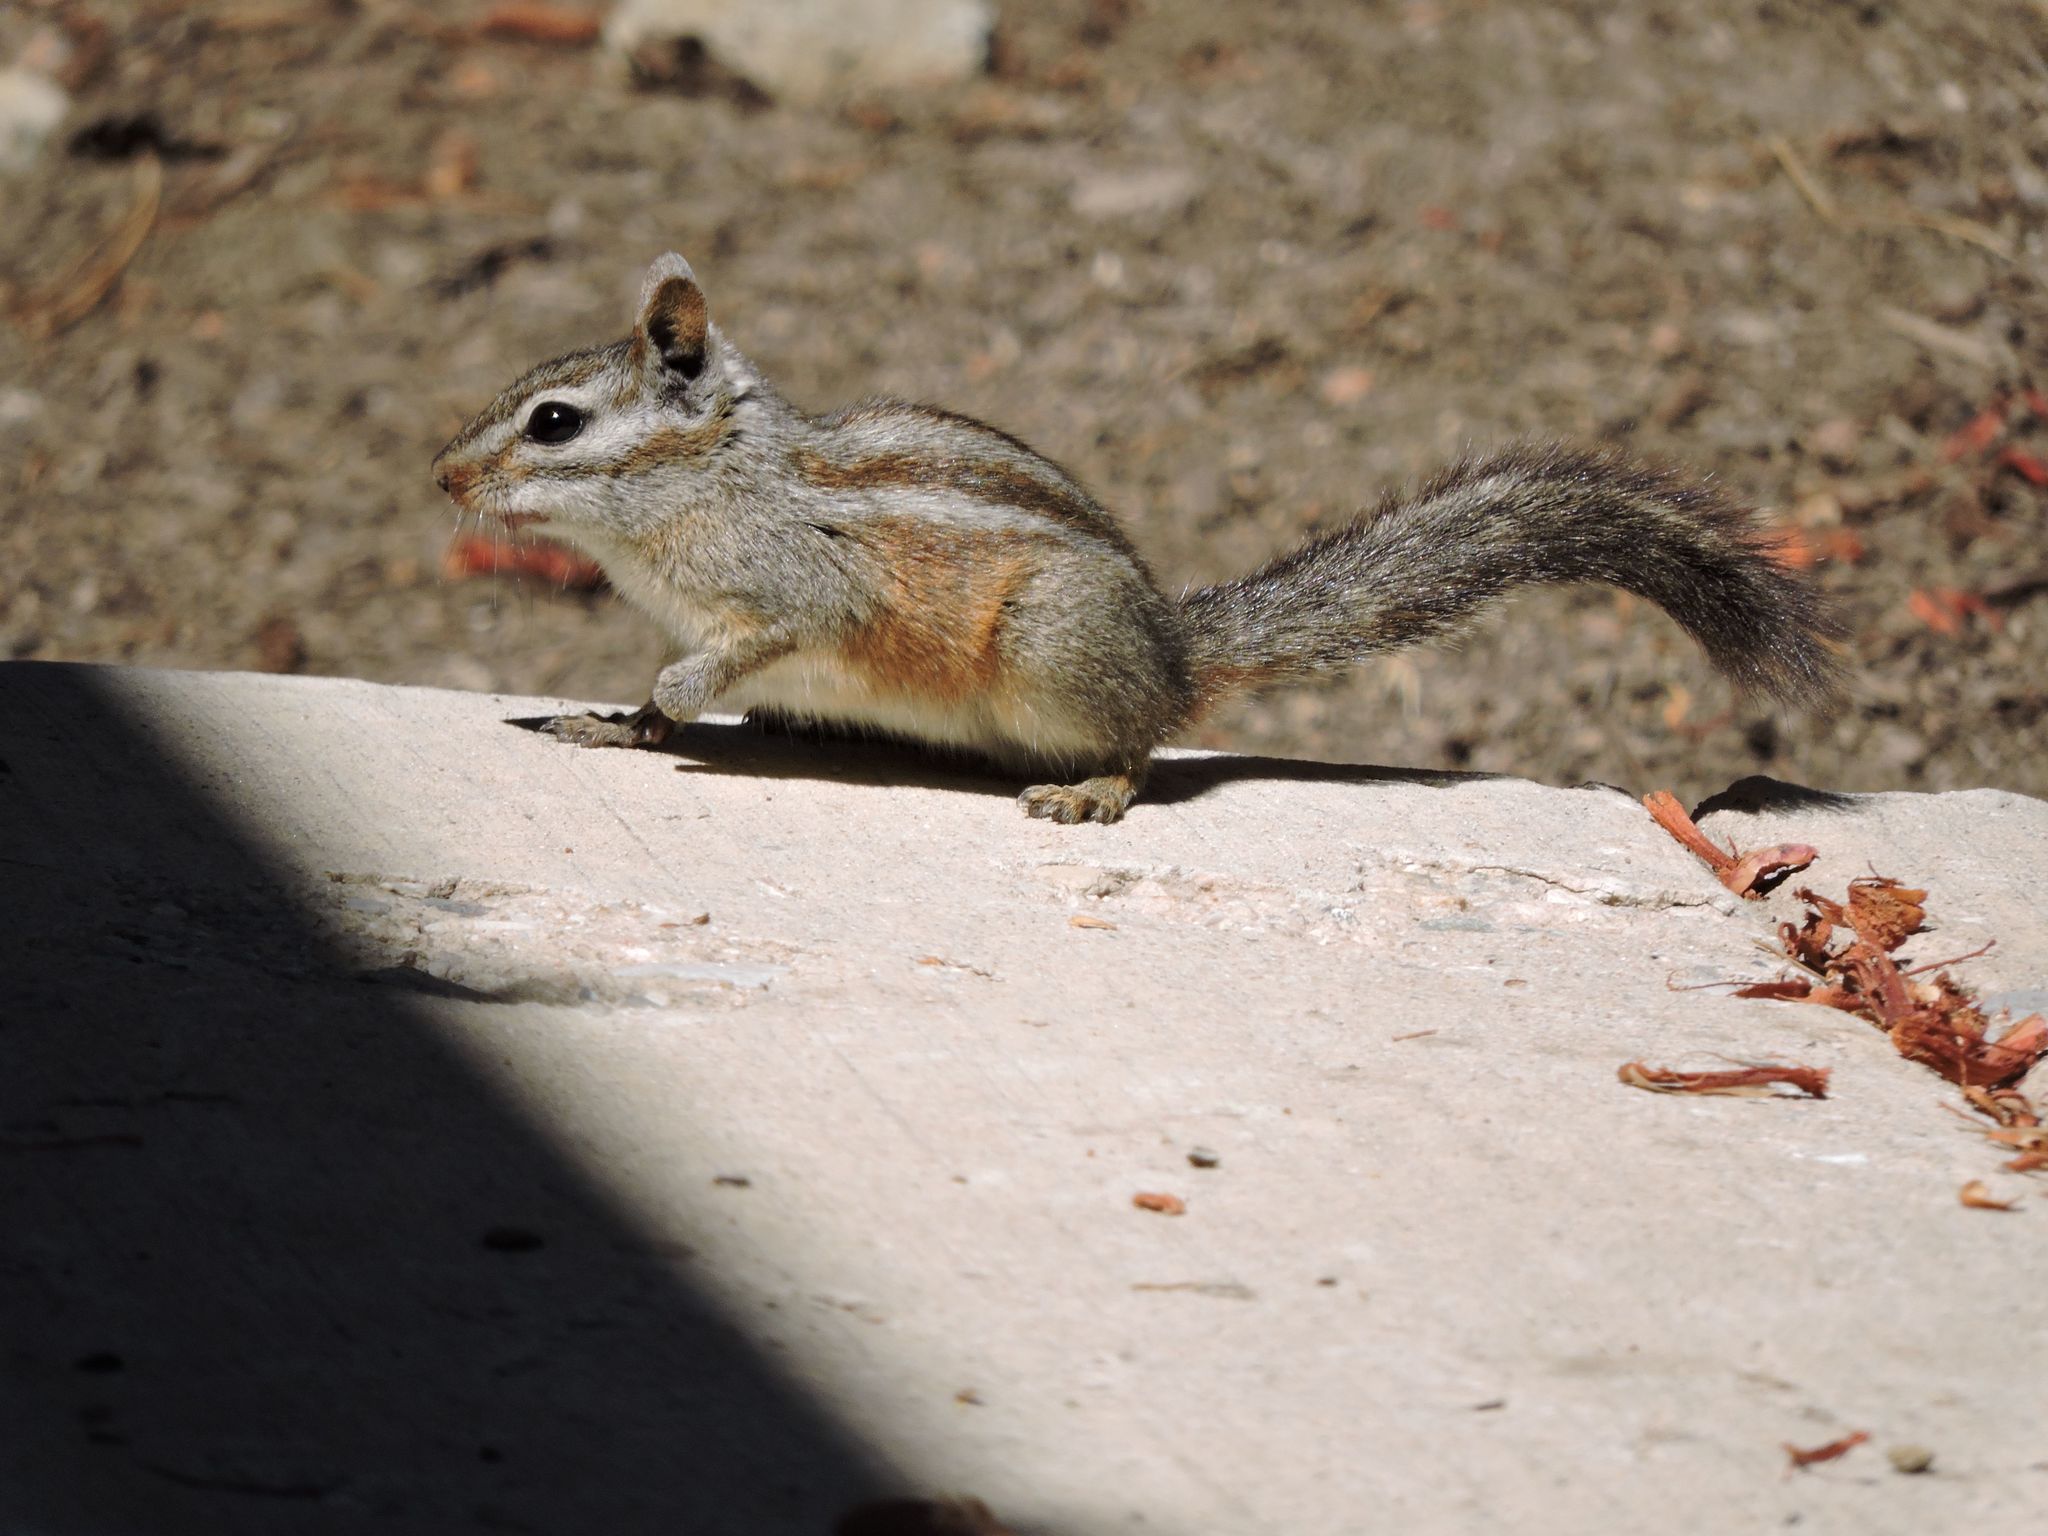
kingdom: Animalia
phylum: Chordata
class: Mammalia
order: Rodentia
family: Sciuridae
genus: Tamias
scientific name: Tamias merriami
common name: Merriam's chipmunk
